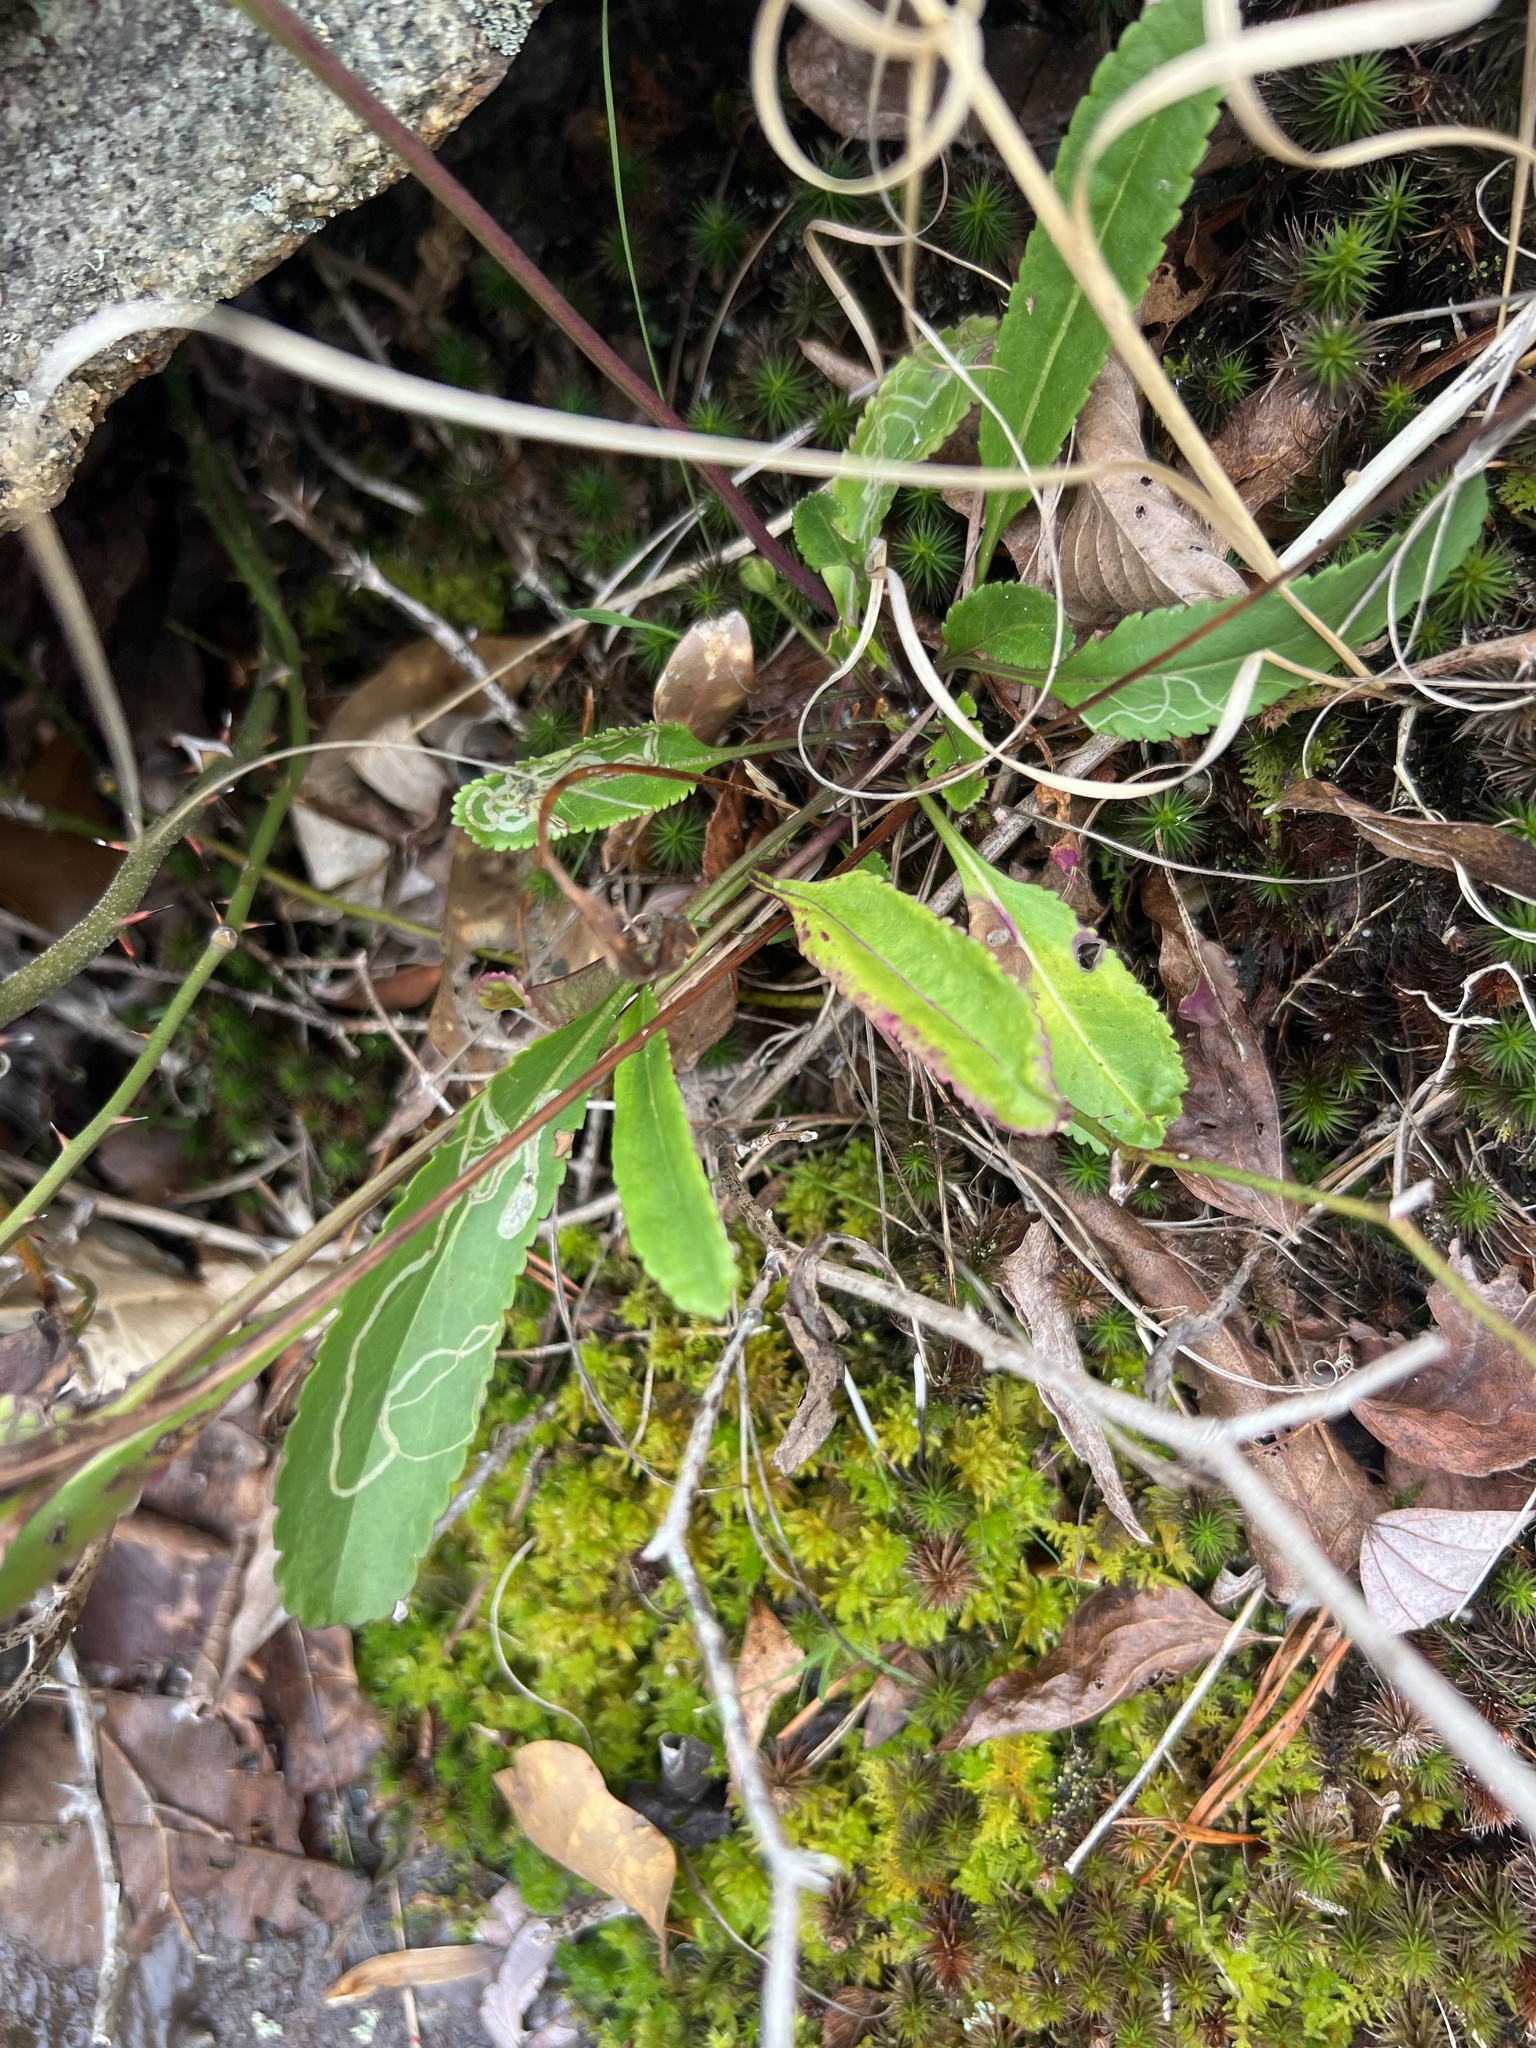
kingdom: Animalia
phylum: Arthropoda
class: Insecta
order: Lepidoptera
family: Gracillariidae
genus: Phyllocnistis
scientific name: Phyllocnistis insignis
